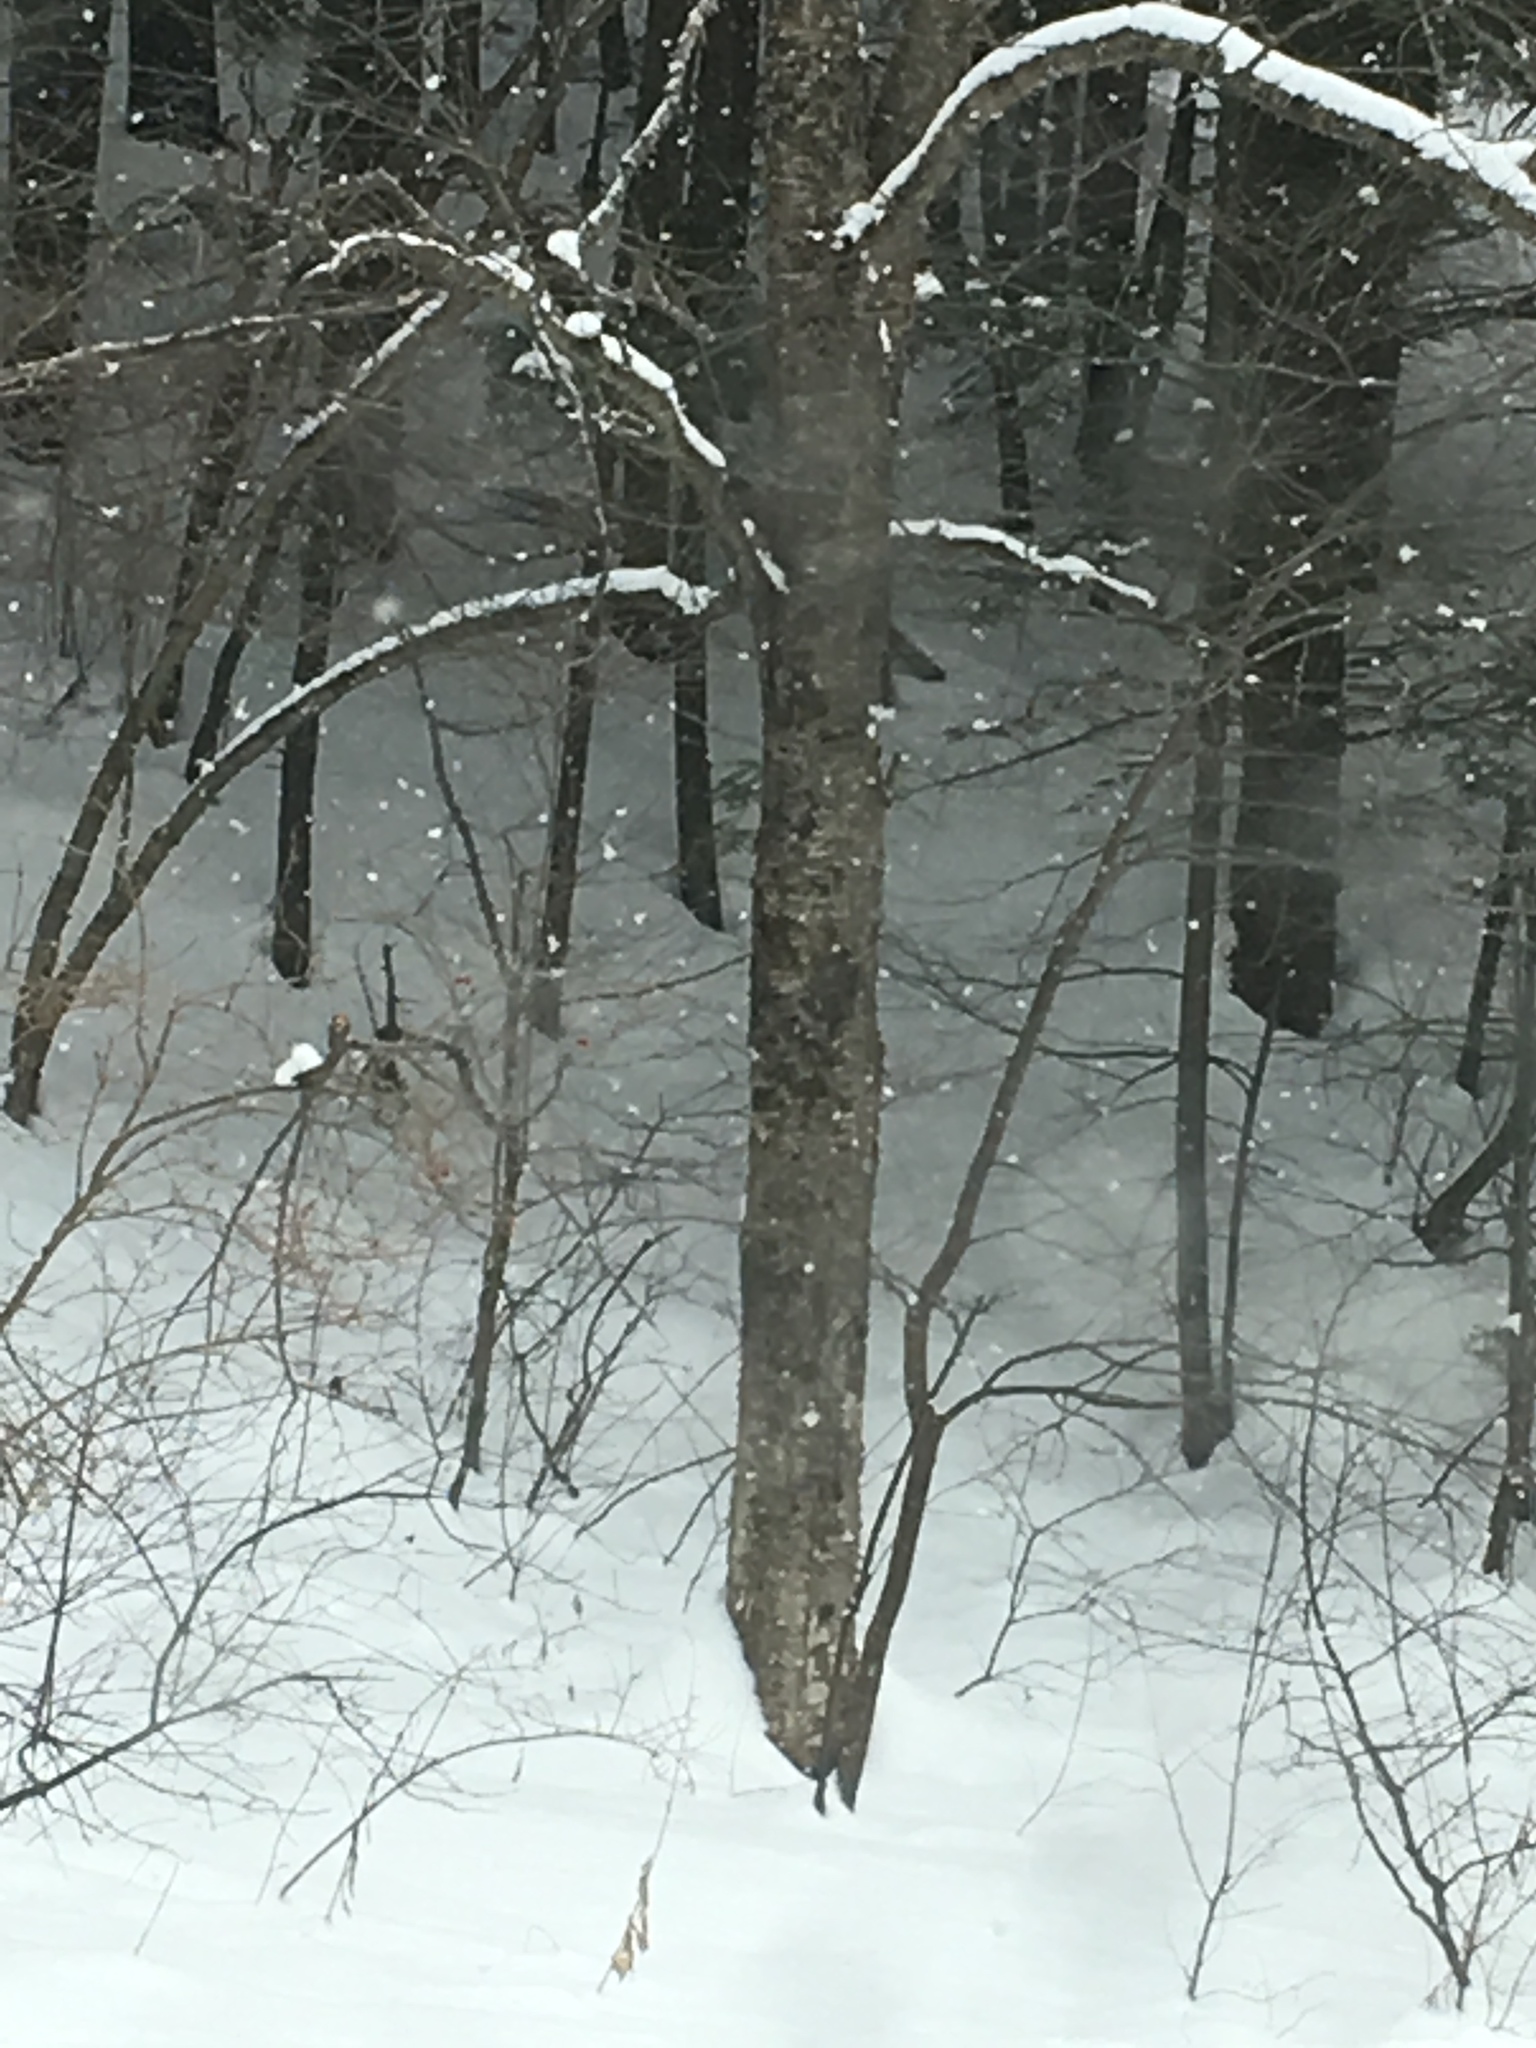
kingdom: Plantae
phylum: Tracheophyta
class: Magnoliopsida
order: Fagales
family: Betulaceae
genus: Betula
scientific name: Betula alleghaniensis
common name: Yellow birch
